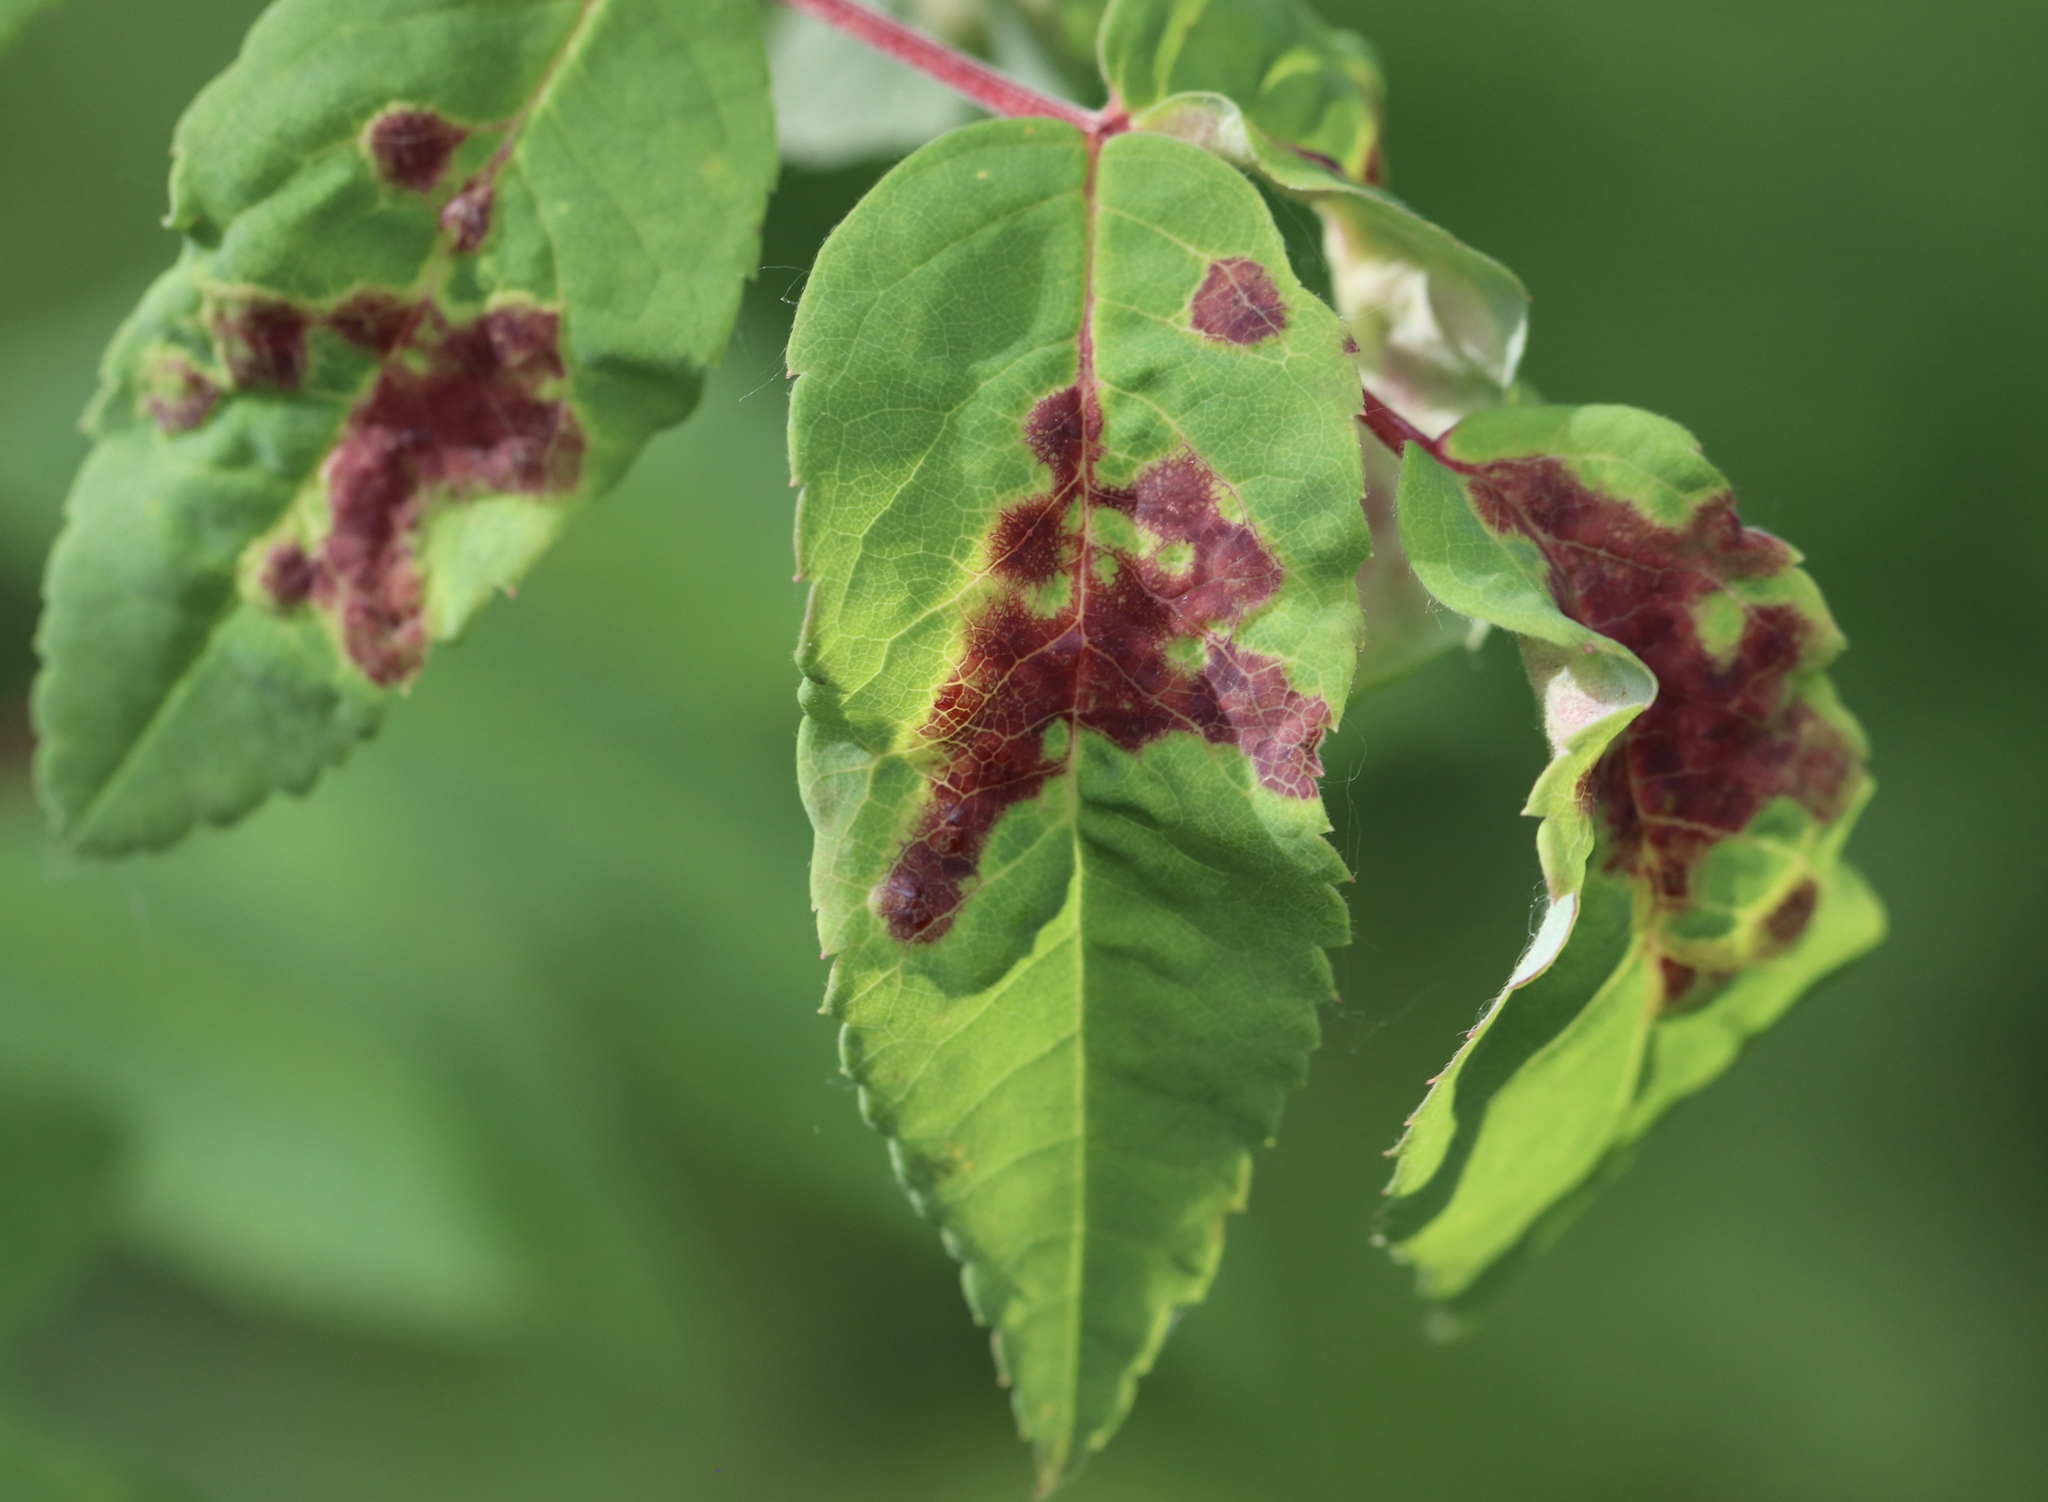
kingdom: Animalia
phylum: Arthropoda
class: Insecta
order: Hymenoptera
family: Cynipidae
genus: Diplolepis
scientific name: Diplolepis rosaefolii
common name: Blister-gall wasp
